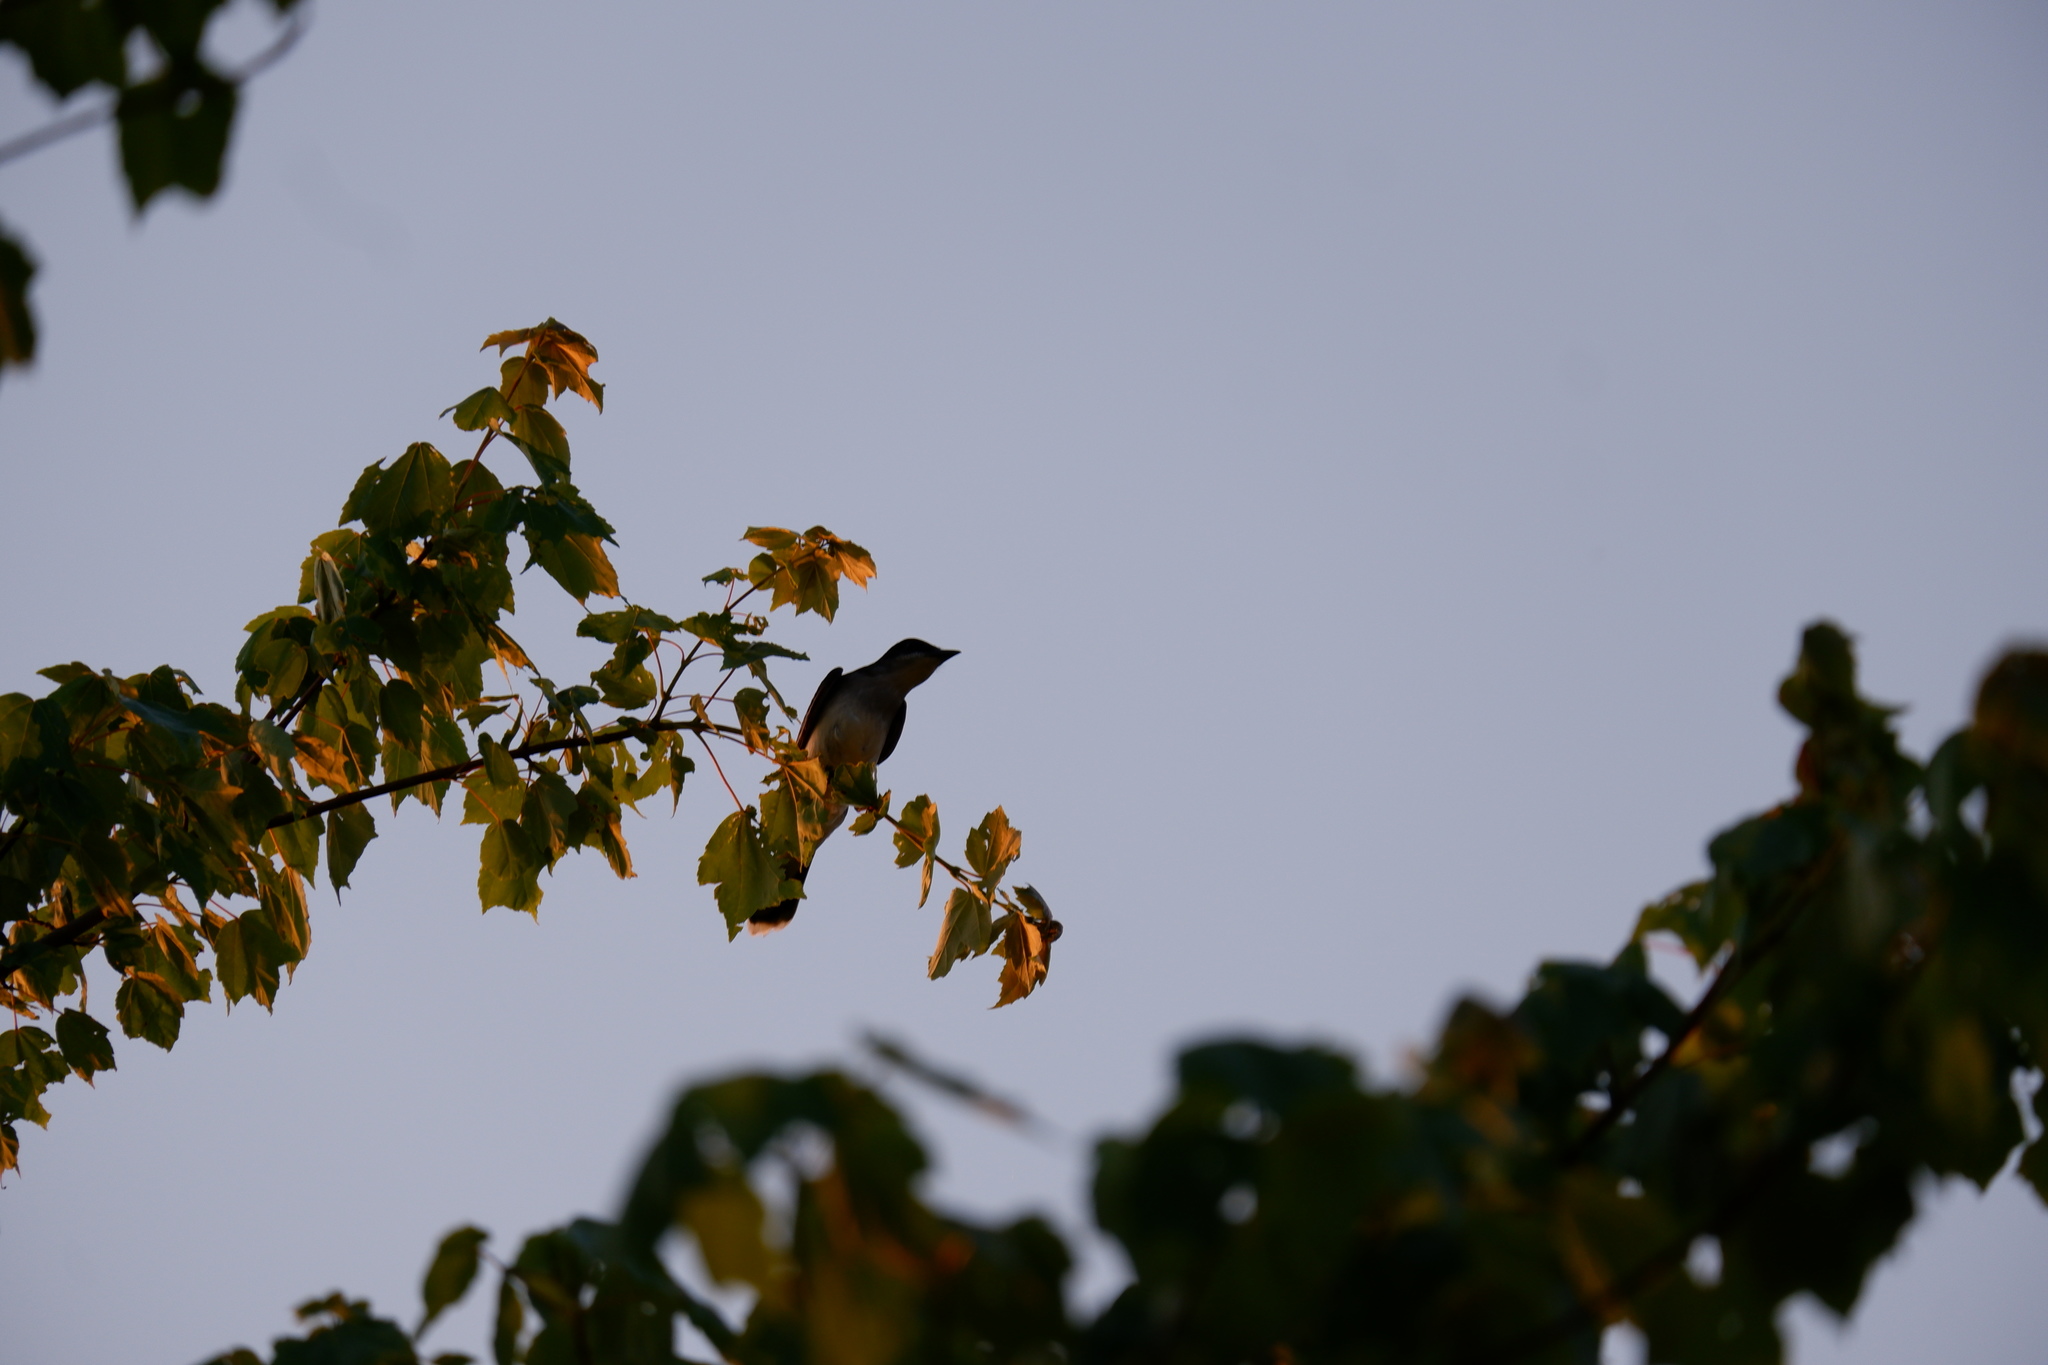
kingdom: Animalia
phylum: Chordata
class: Aves
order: Passeriformes
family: Tyrannidae
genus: Tyrannus
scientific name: Tyrannus tyrannus
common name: Eastern kingbird
